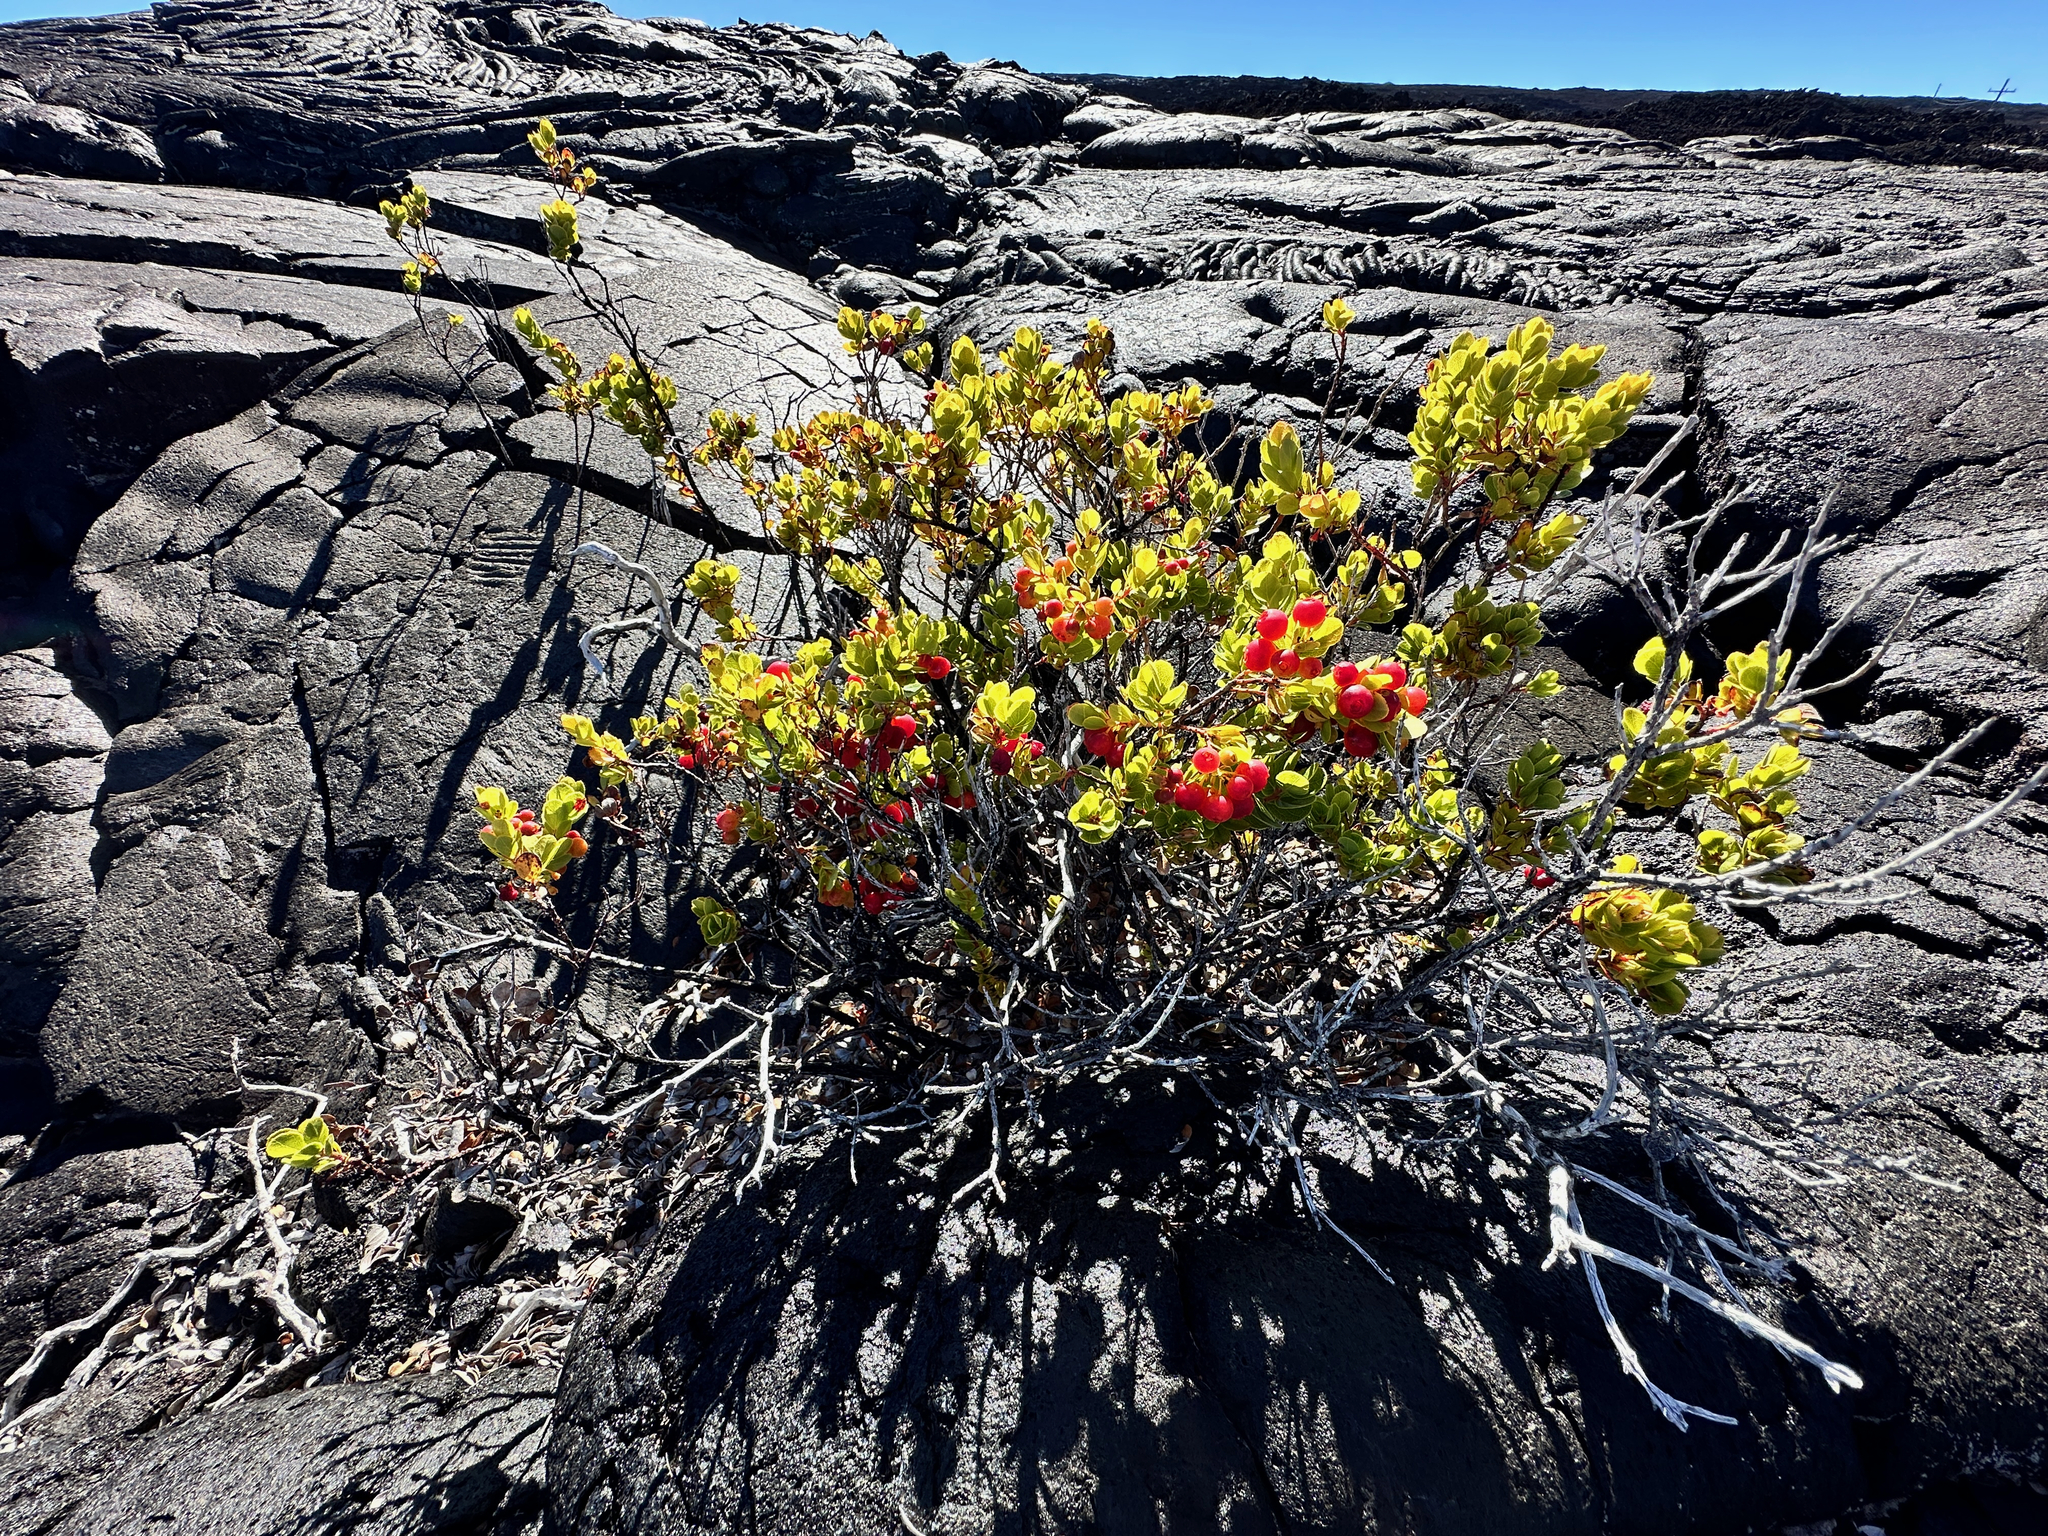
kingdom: Plantae
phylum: Tracheophyta
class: Magnoliopsida
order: Ericales
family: Ericaceae
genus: Vaccinium
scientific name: Vaccinium reticulatum
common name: Ohelo
